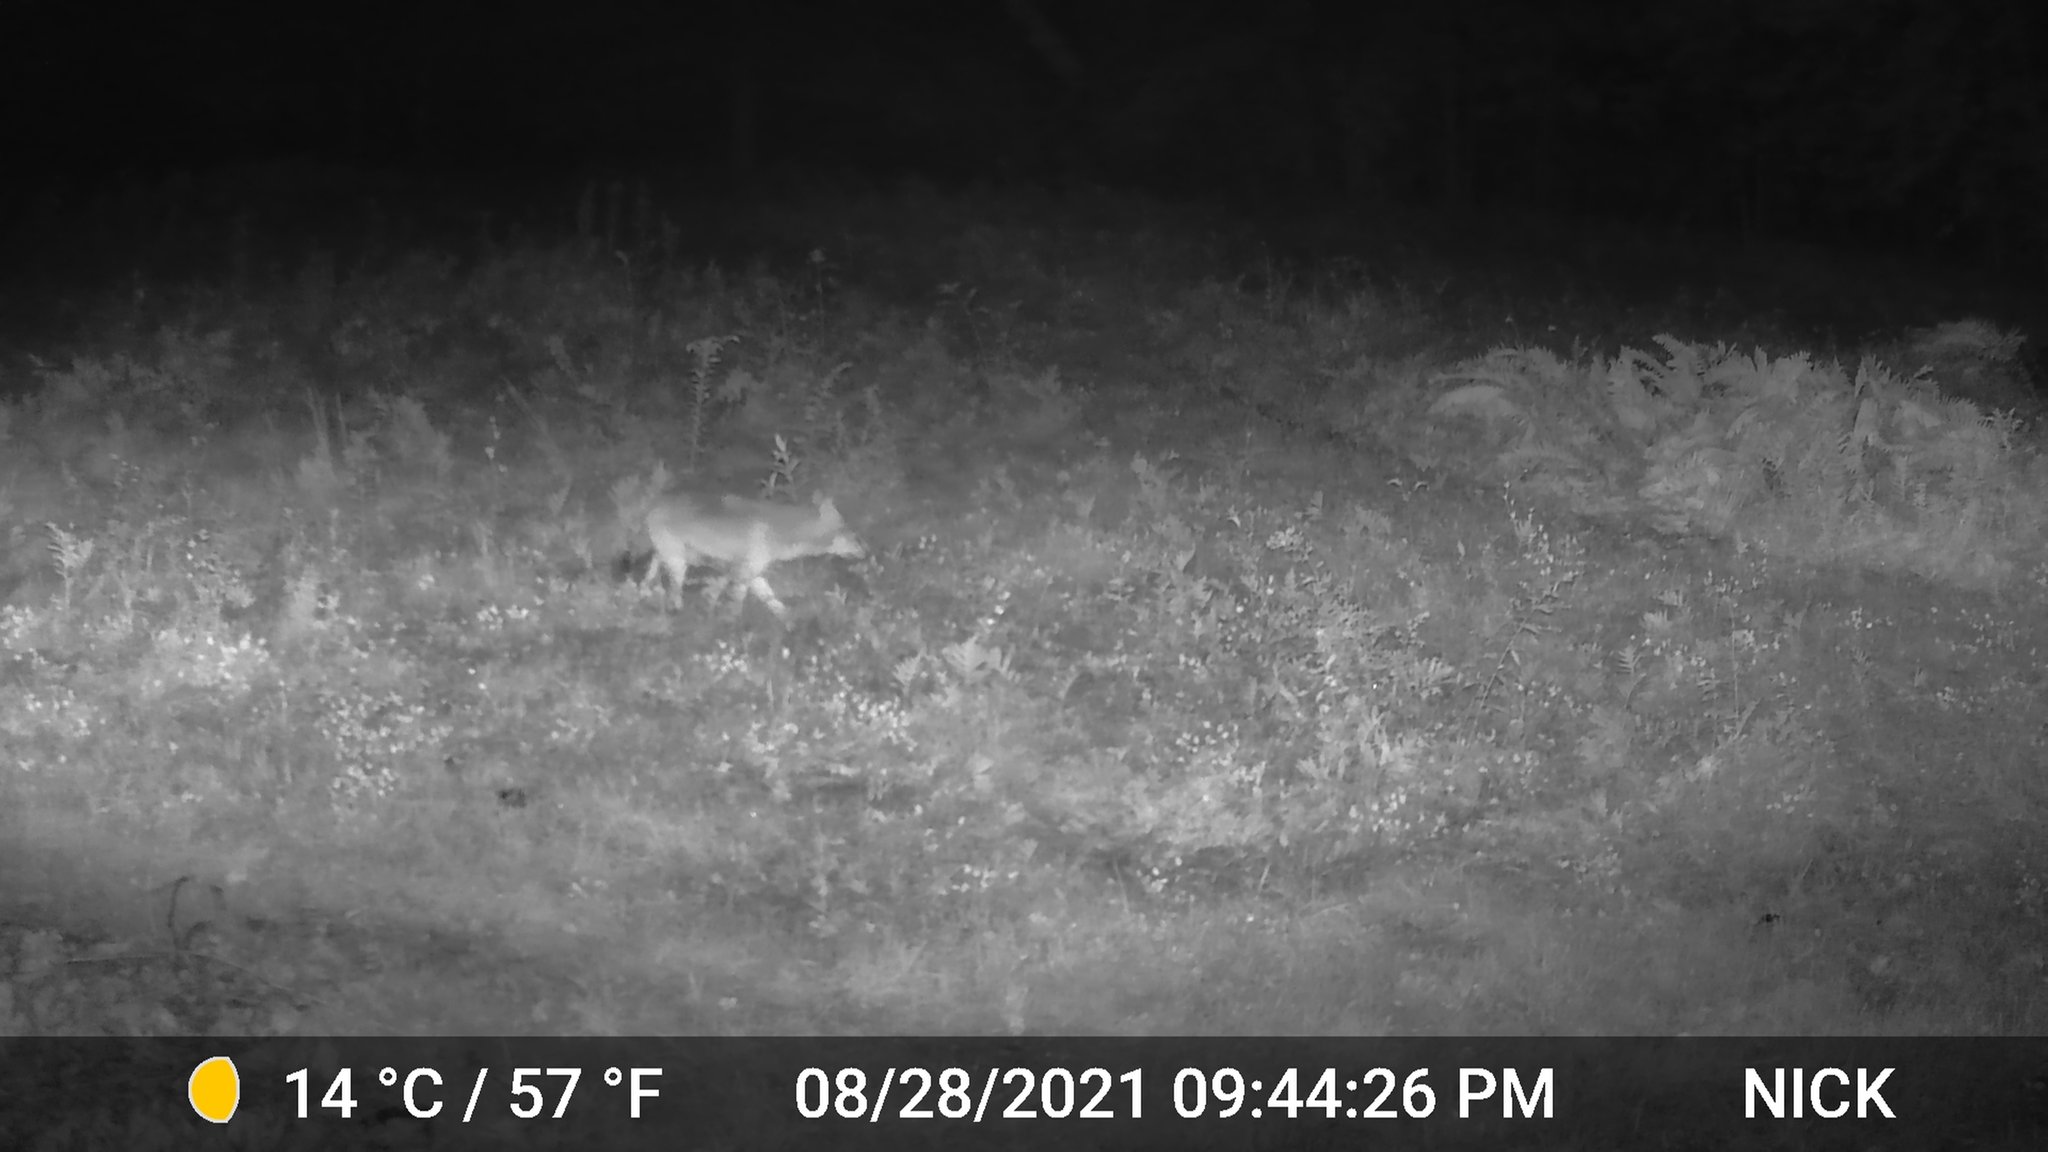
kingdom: Animalia
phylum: Chordata
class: Mammalia
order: Carnivora
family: Canidae
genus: Canis
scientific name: Canis latrans
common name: Coyote
